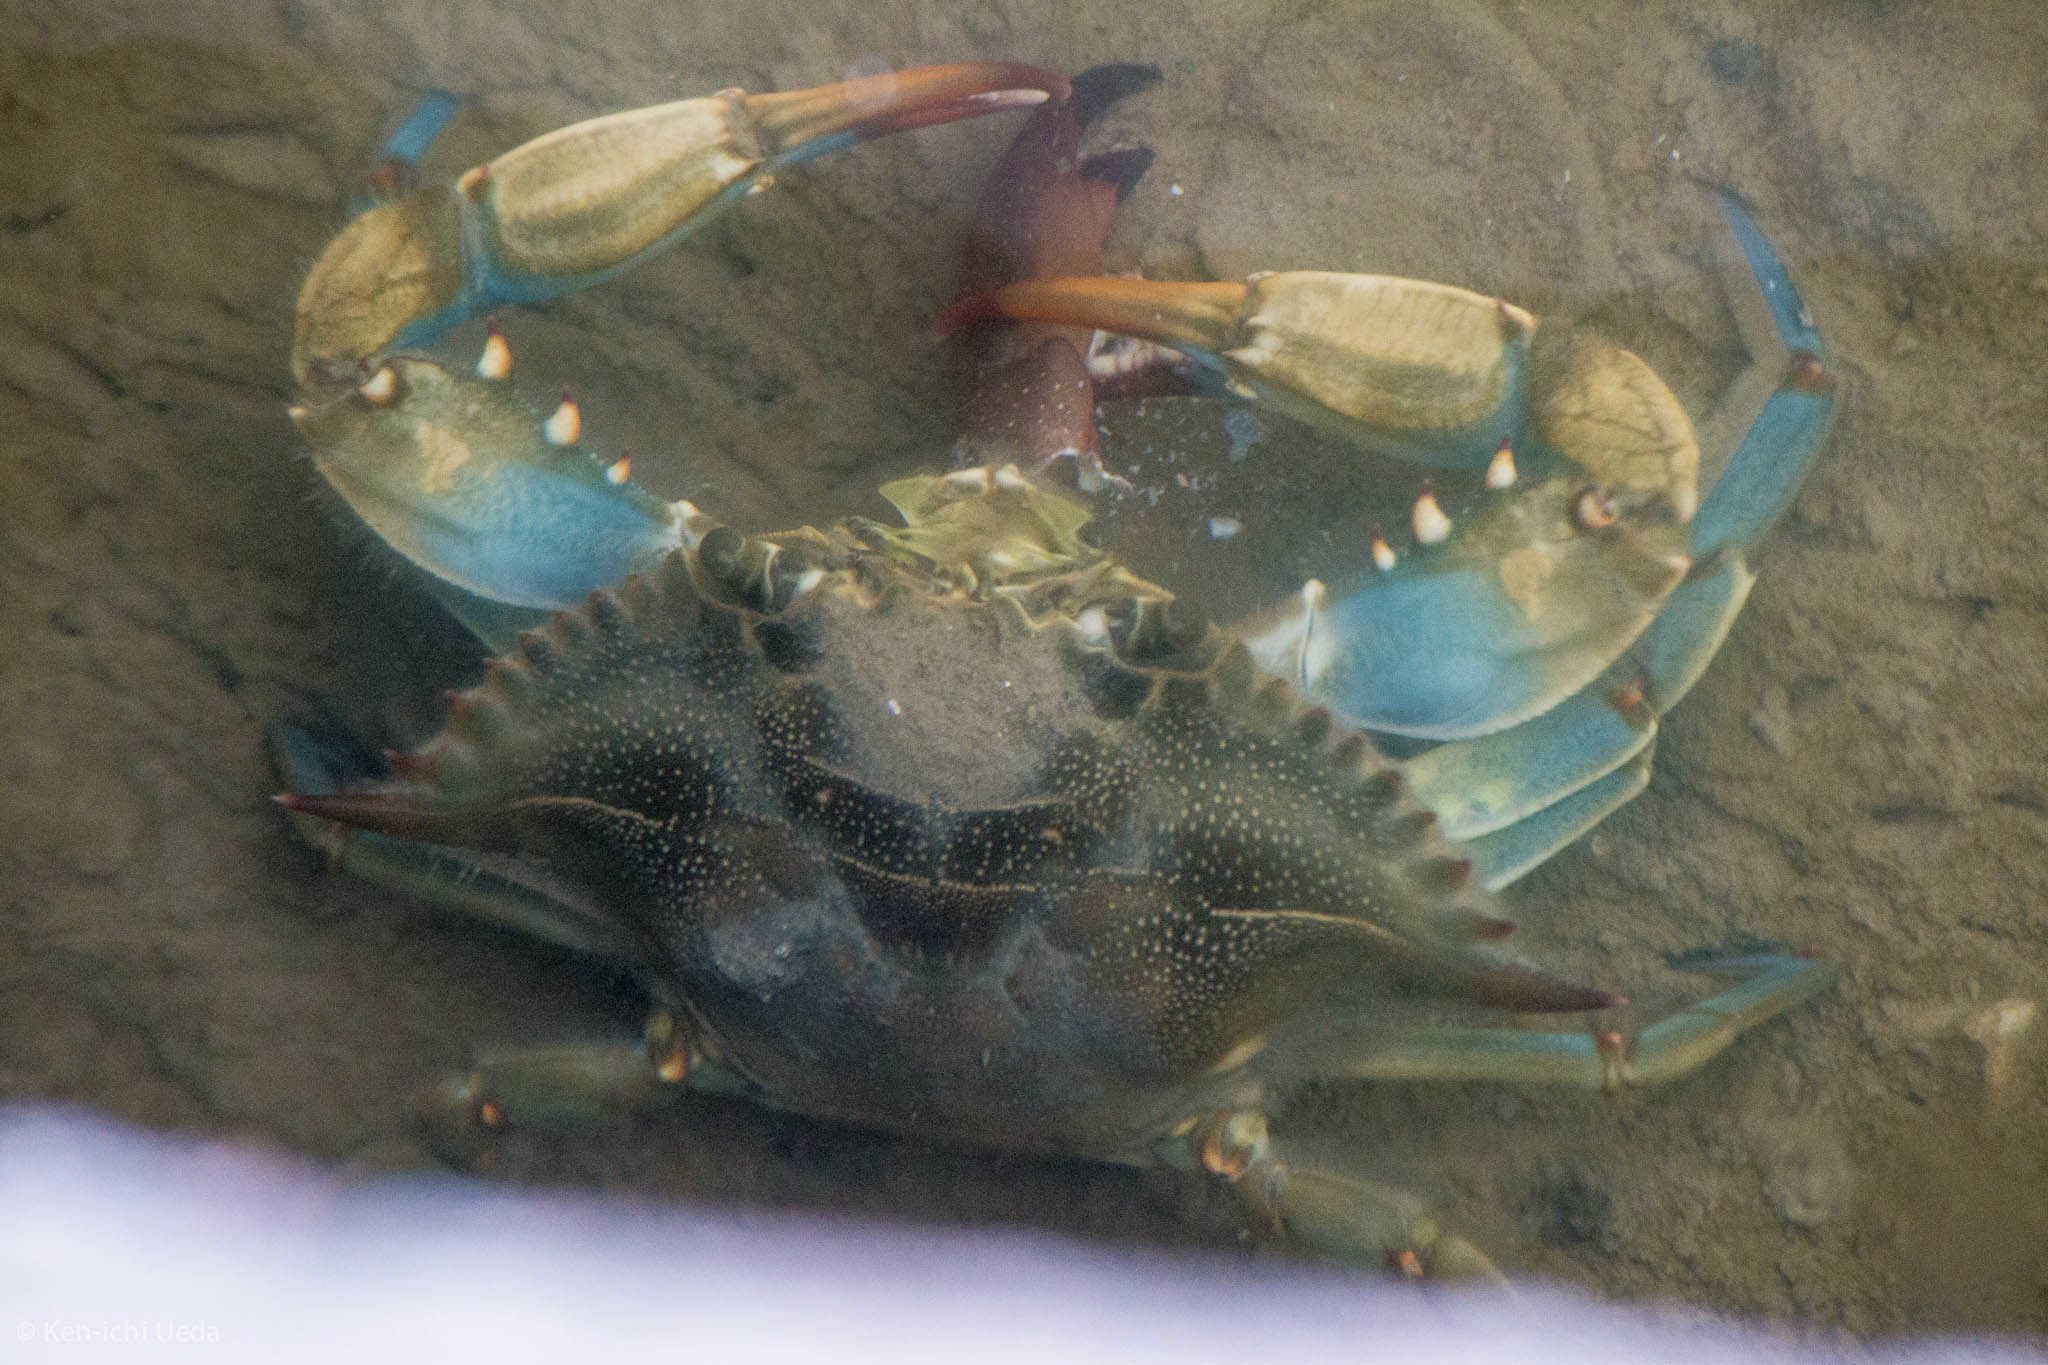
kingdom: Animalia
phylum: Arthropoda
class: Malacostraca
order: Decapoda
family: Portunidae
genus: Callinectes
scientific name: Callinectes sapidus
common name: Blue crab
